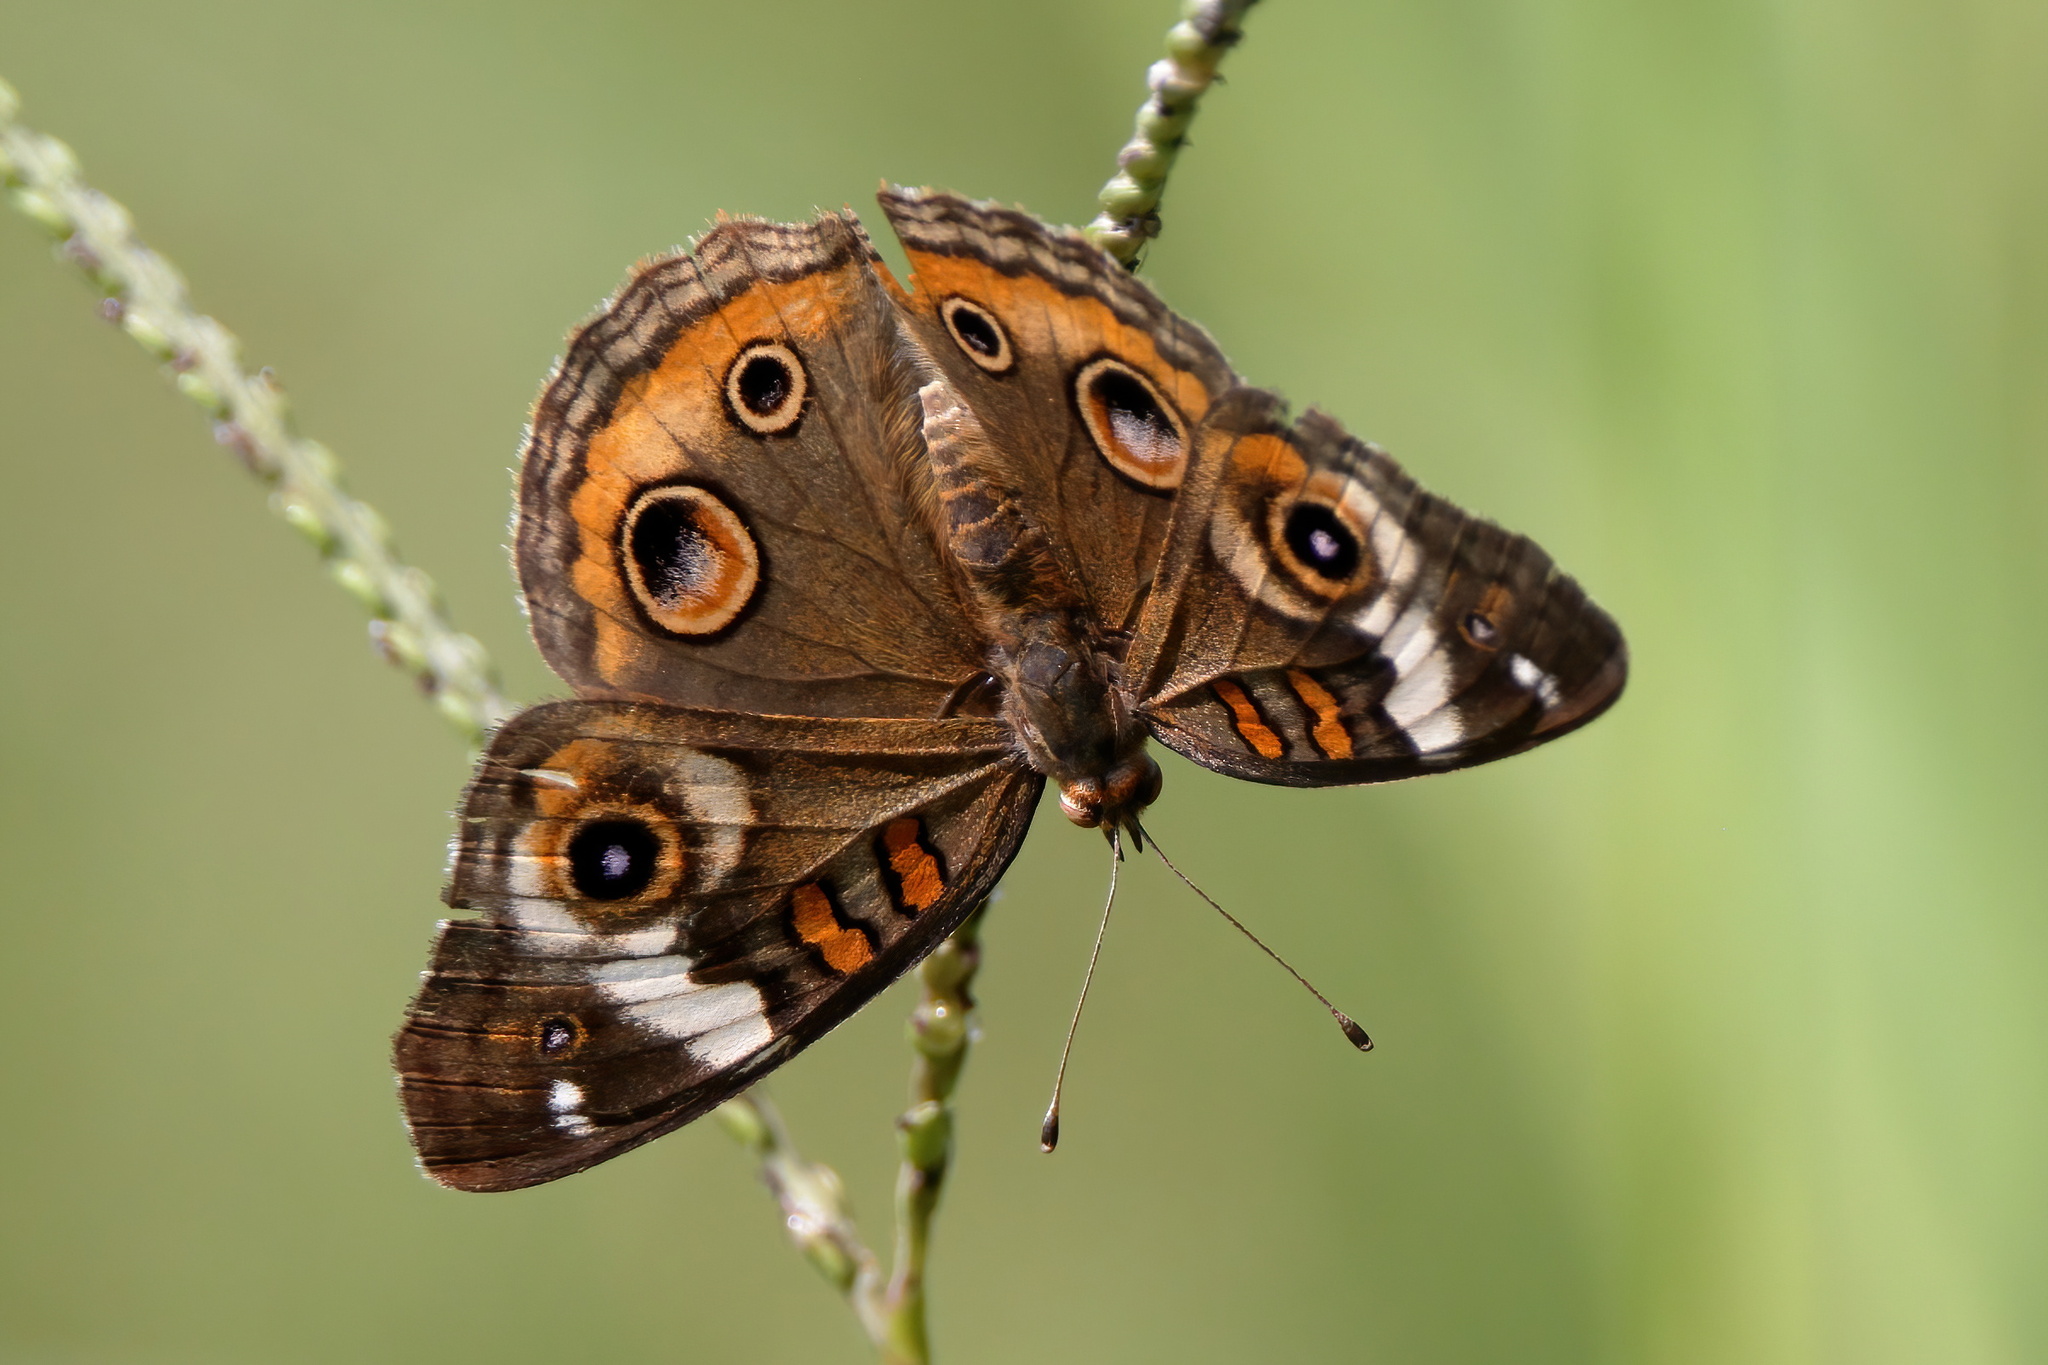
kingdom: Animalia
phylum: Arthropoda
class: Insecta
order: Lepidoptera
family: Nymphalidae
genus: Junonia
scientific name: Junonia coenia
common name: Common buckeye
